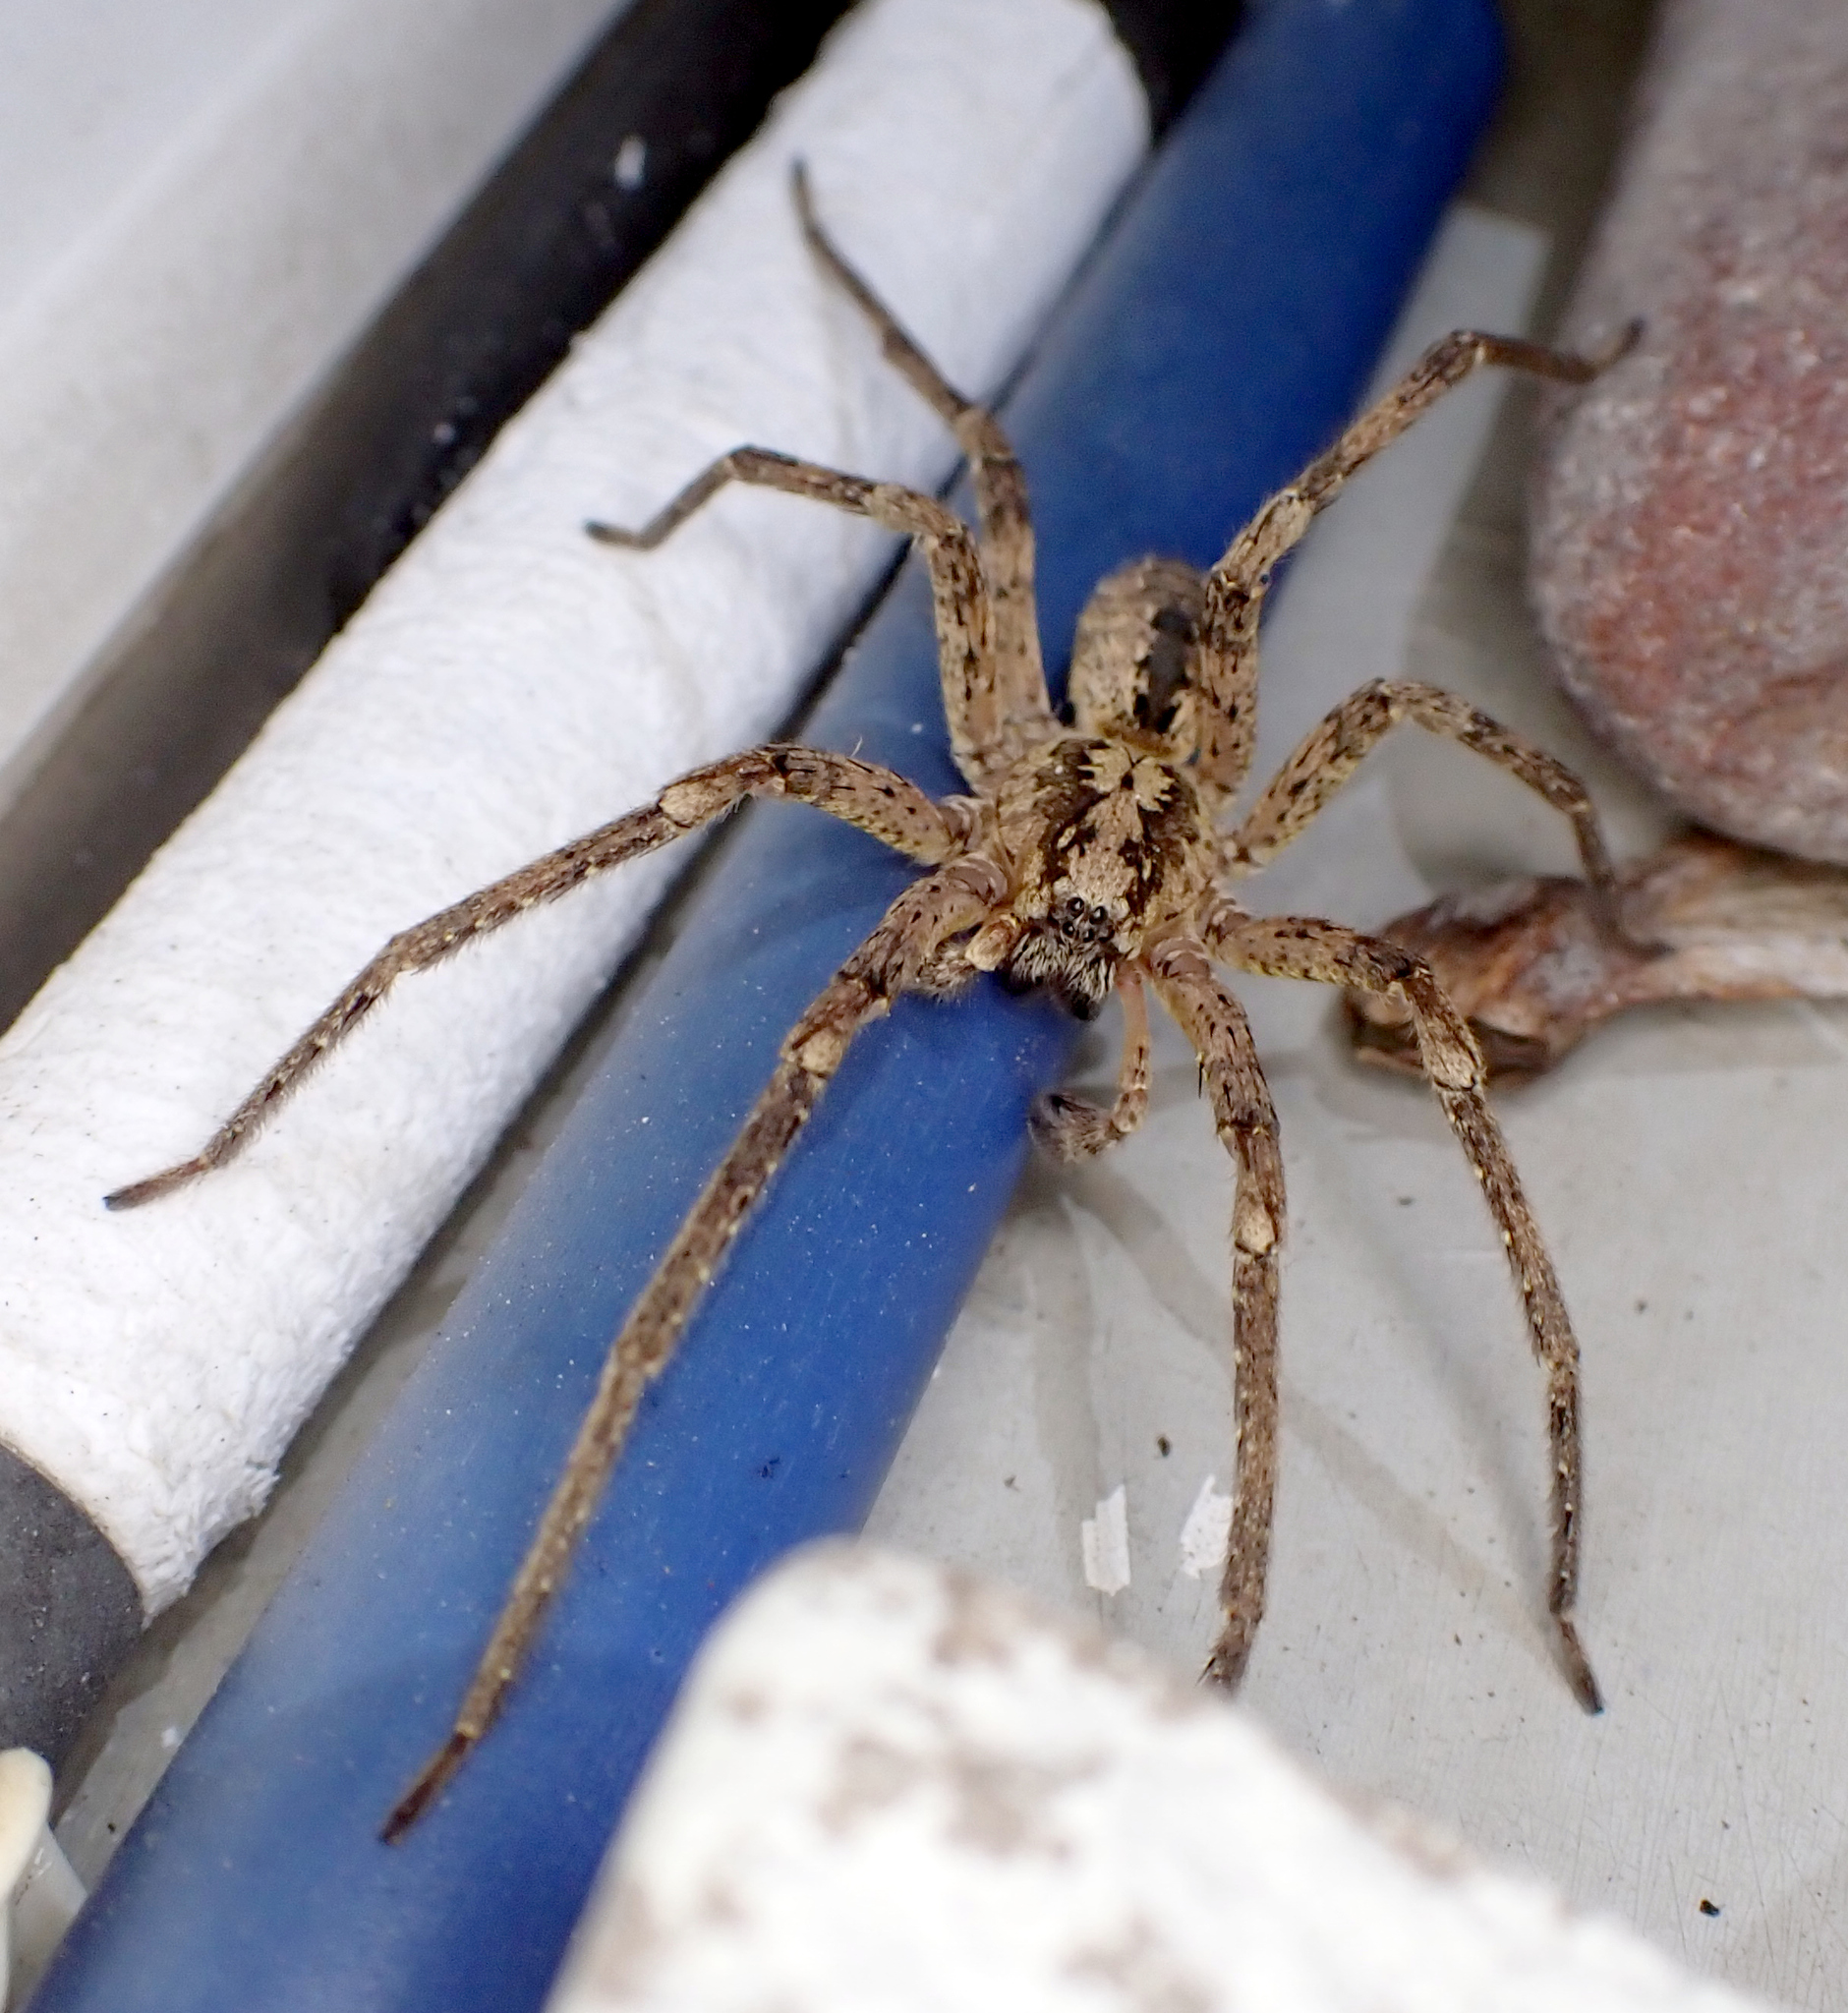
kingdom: Animalia
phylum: Arthropoda
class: Arachnida
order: Araneae
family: Zoropsidae
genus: Zoropsis
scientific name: Zoropsis spinimana
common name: Zoropsid spider
